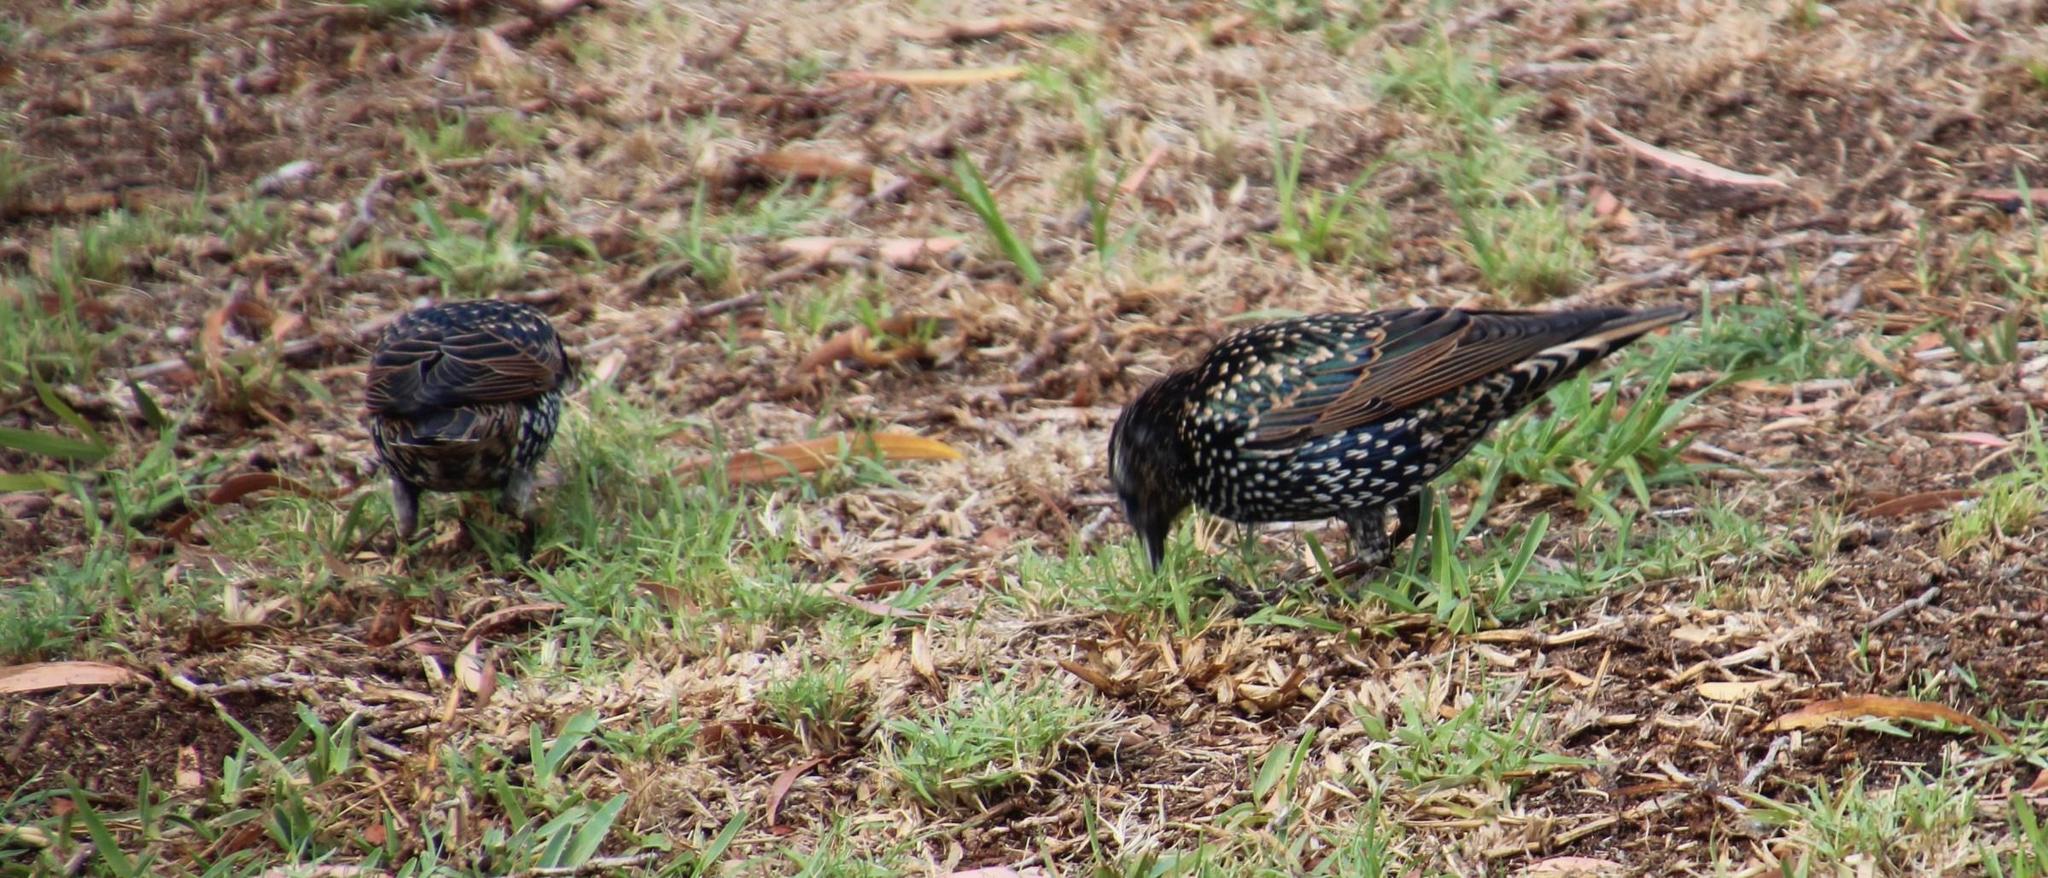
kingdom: Animalia
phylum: Chordata
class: Aves
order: Passeriformes
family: Sturnidae
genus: Sturnus
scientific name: Sturnus vulgaris
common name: Common starling
